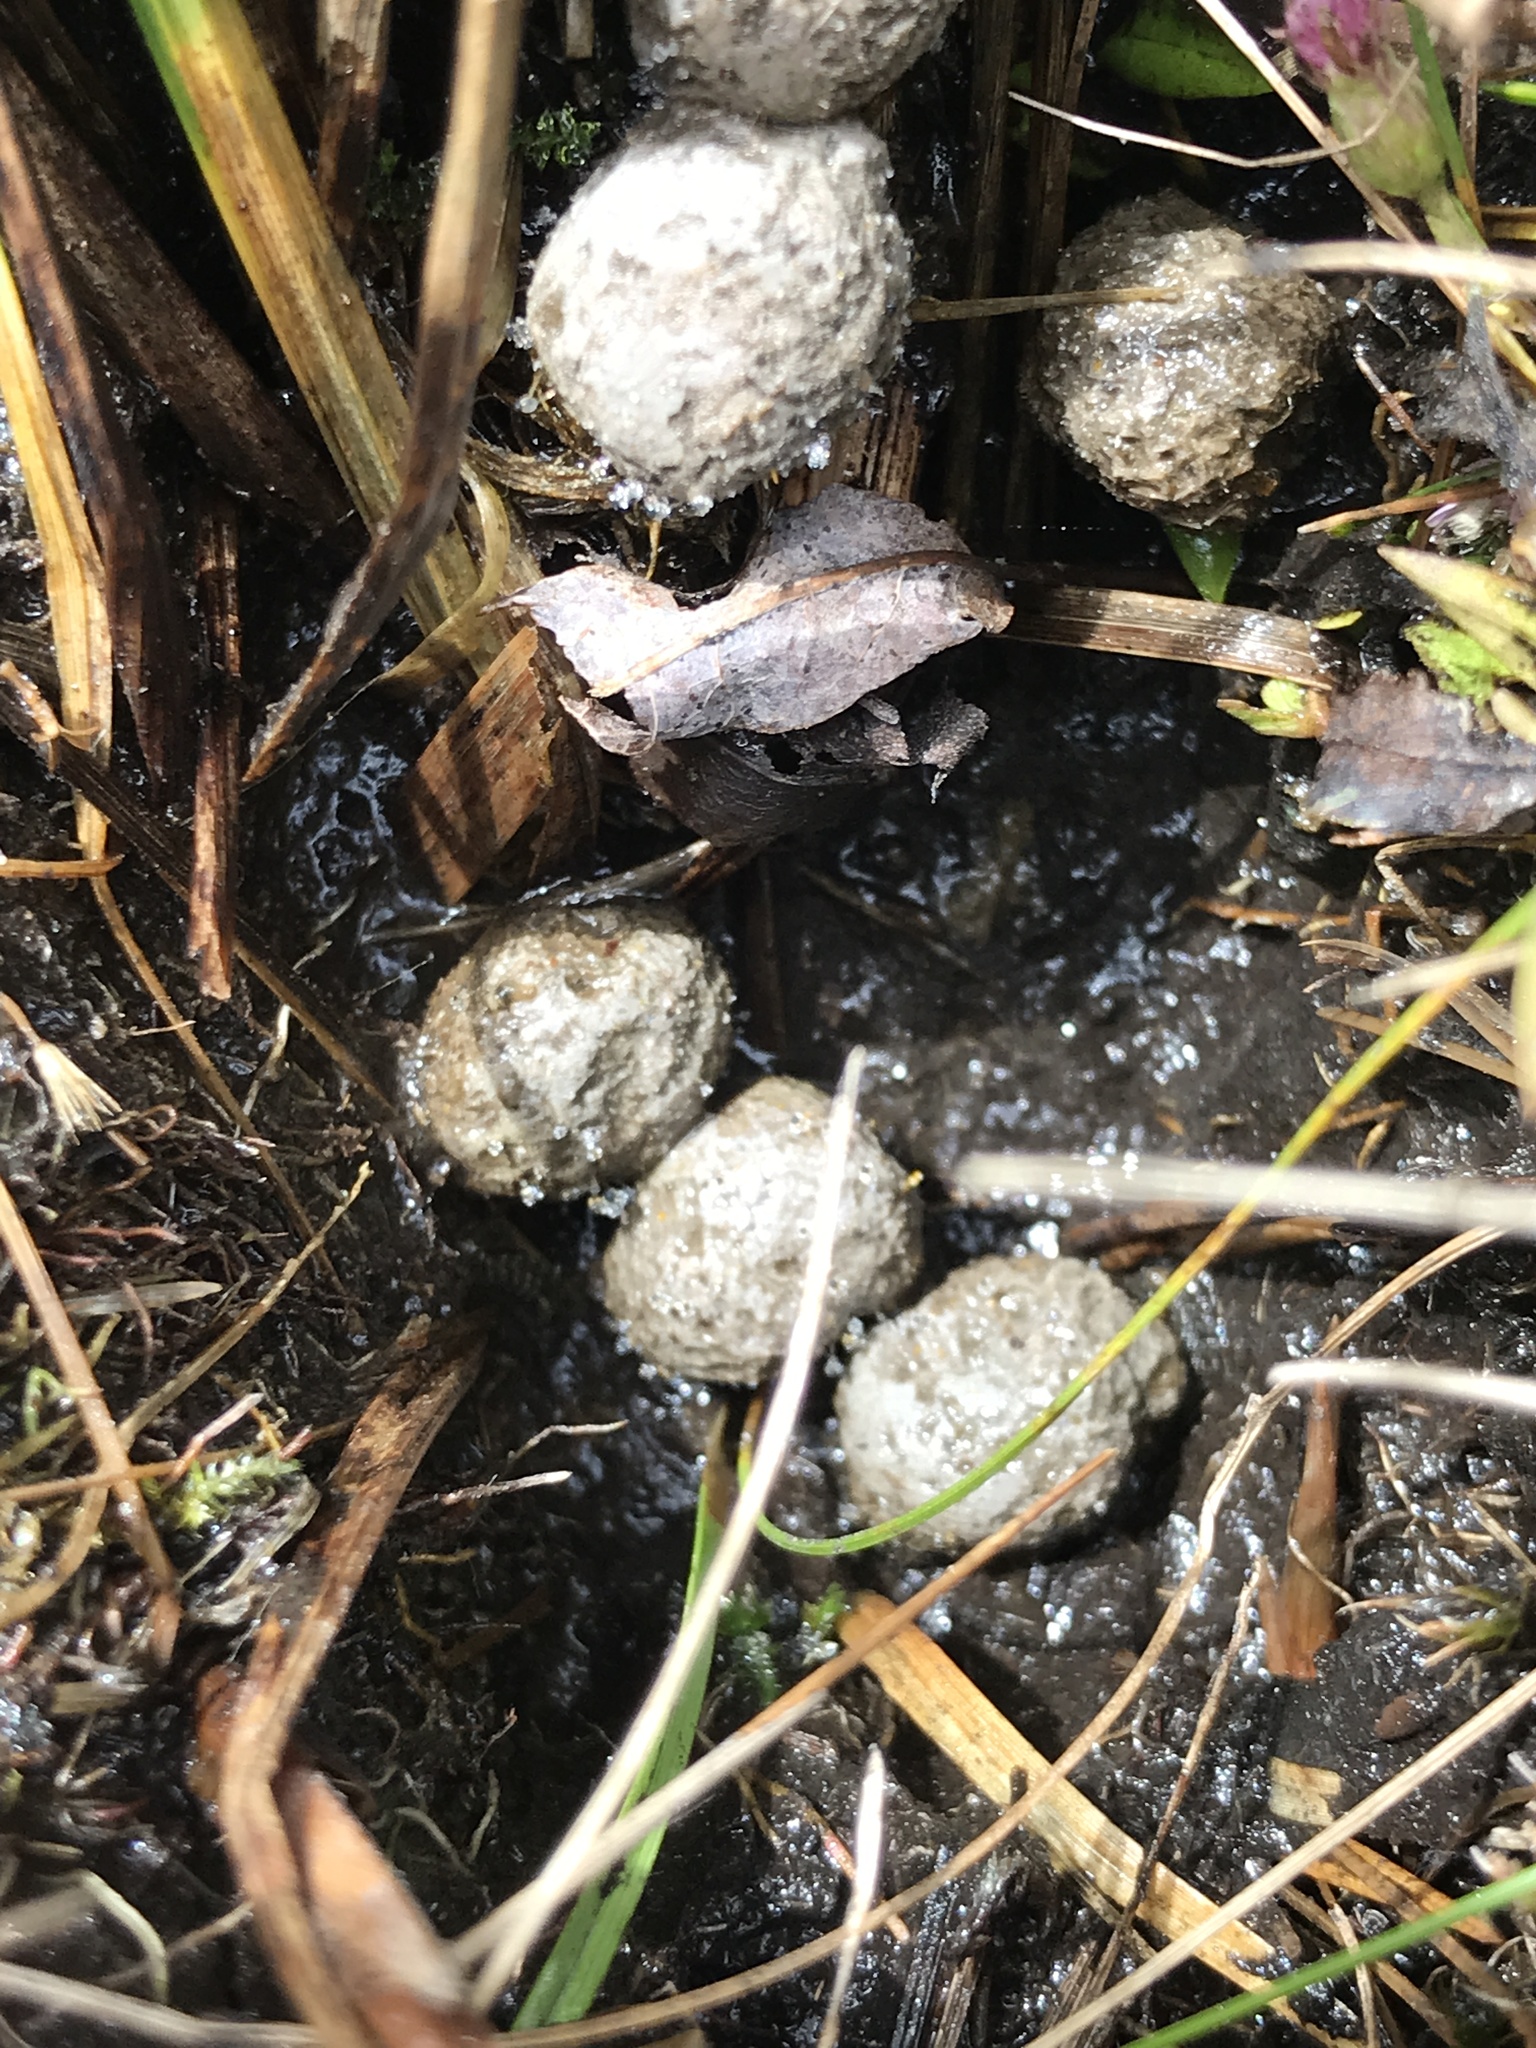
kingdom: Fungi
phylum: Mucoromycota
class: Mucoromycetes
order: Mucorales
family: Pilobolaceae
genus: Pilobolus
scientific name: Pilobolus
